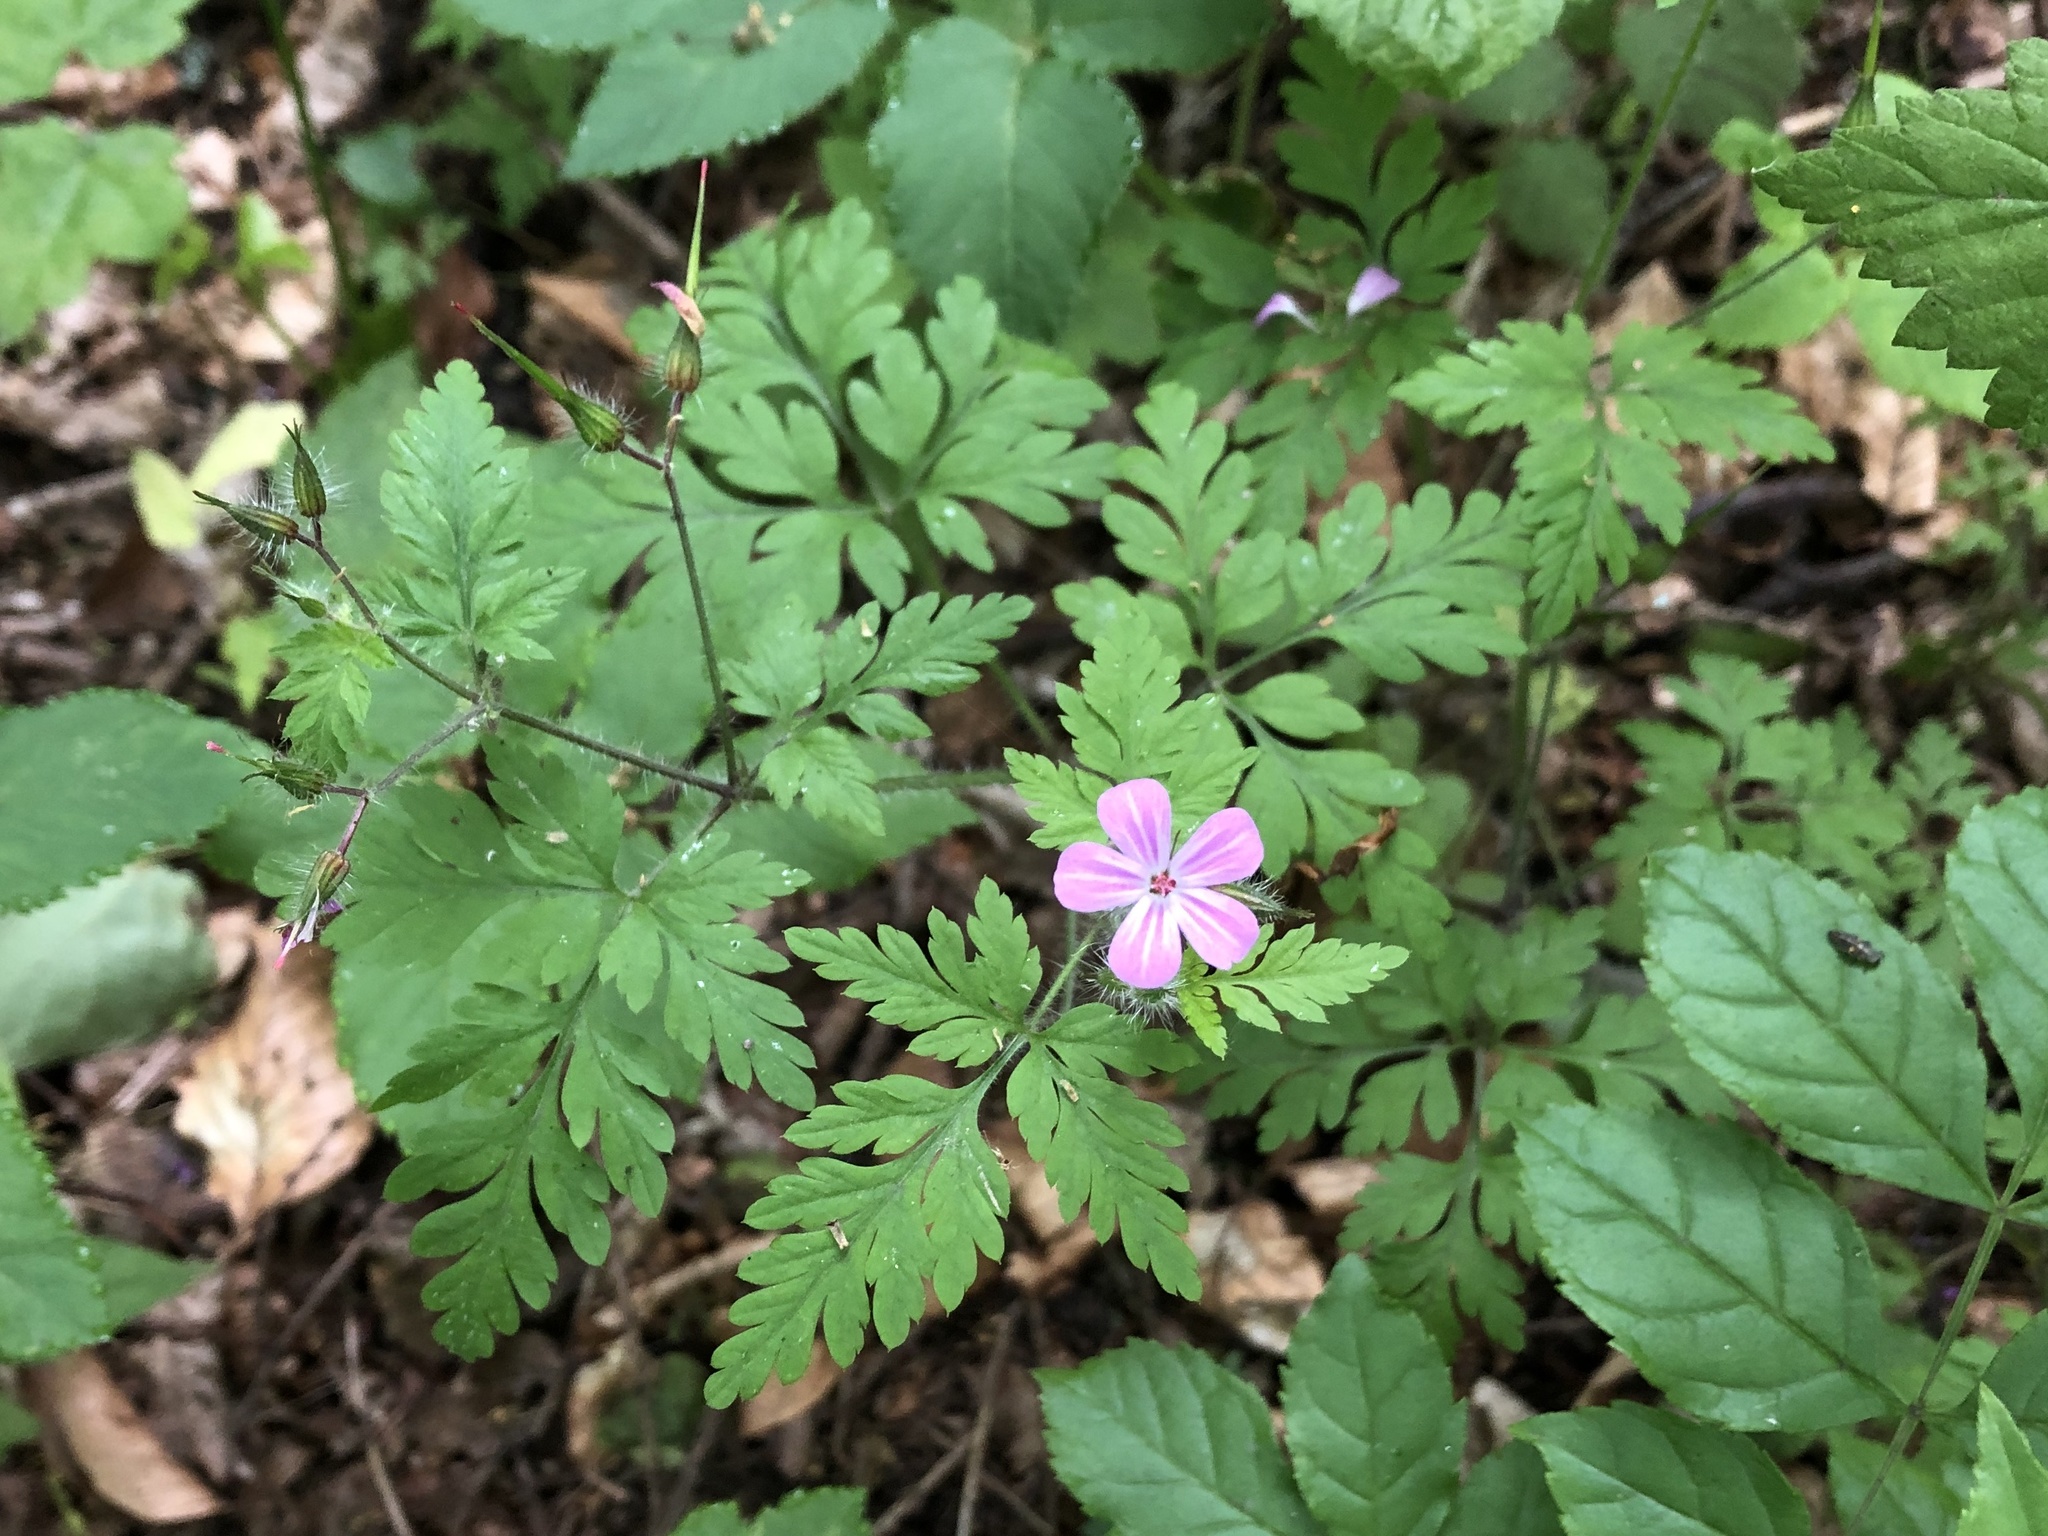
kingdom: Plantae
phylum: Tracheophyta
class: Magnoliopsida
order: Geraniales
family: Geraniaceae
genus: Geranium
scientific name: Geranium robertianum
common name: Herb-robert
